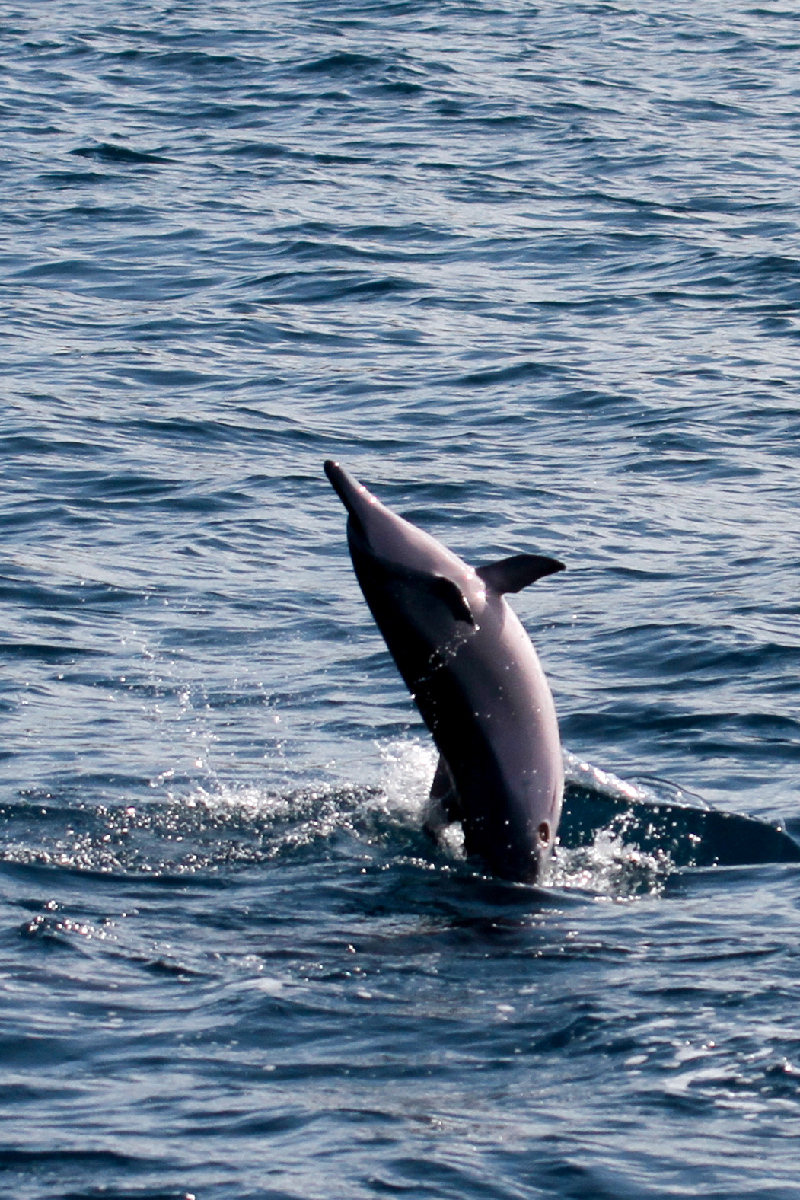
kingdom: Animalia
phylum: Chordata
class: Mammalia
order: Cetacea
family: Delphinidae
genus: Stenella
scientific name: Stenella longirostris
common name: Spinner dolphin
